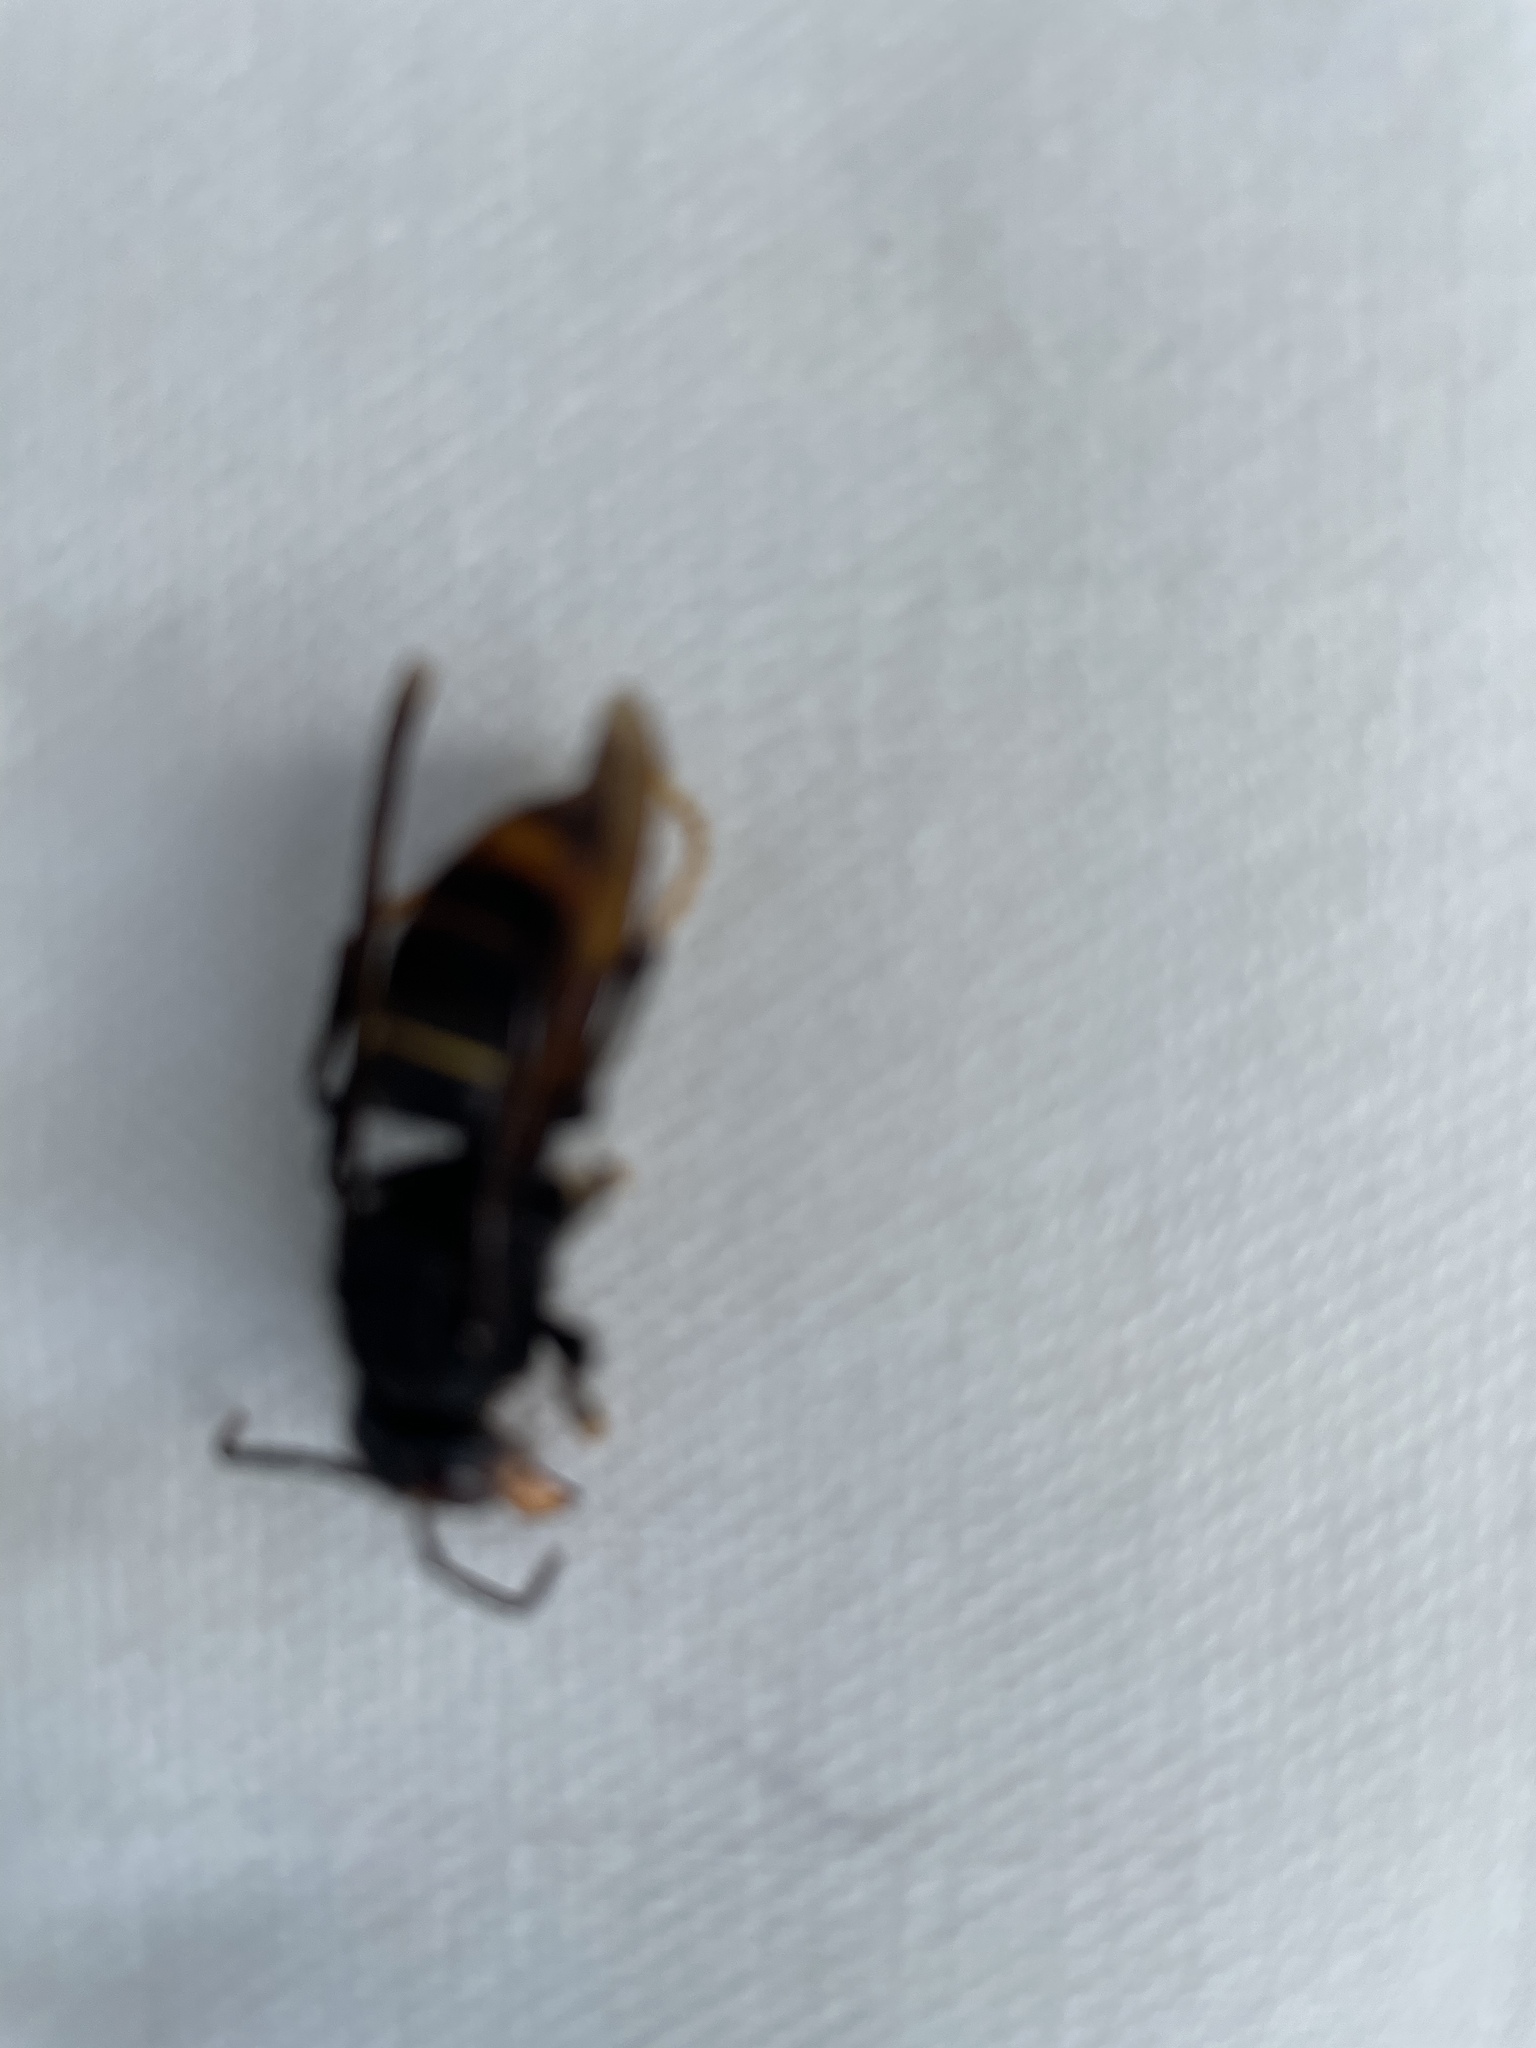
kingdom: Animalia
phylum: Arthropoda
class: Insecta
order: Hymenoptera
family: Vespidae
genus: Vespa
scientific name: Vespa velutina
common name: Asian hornet
